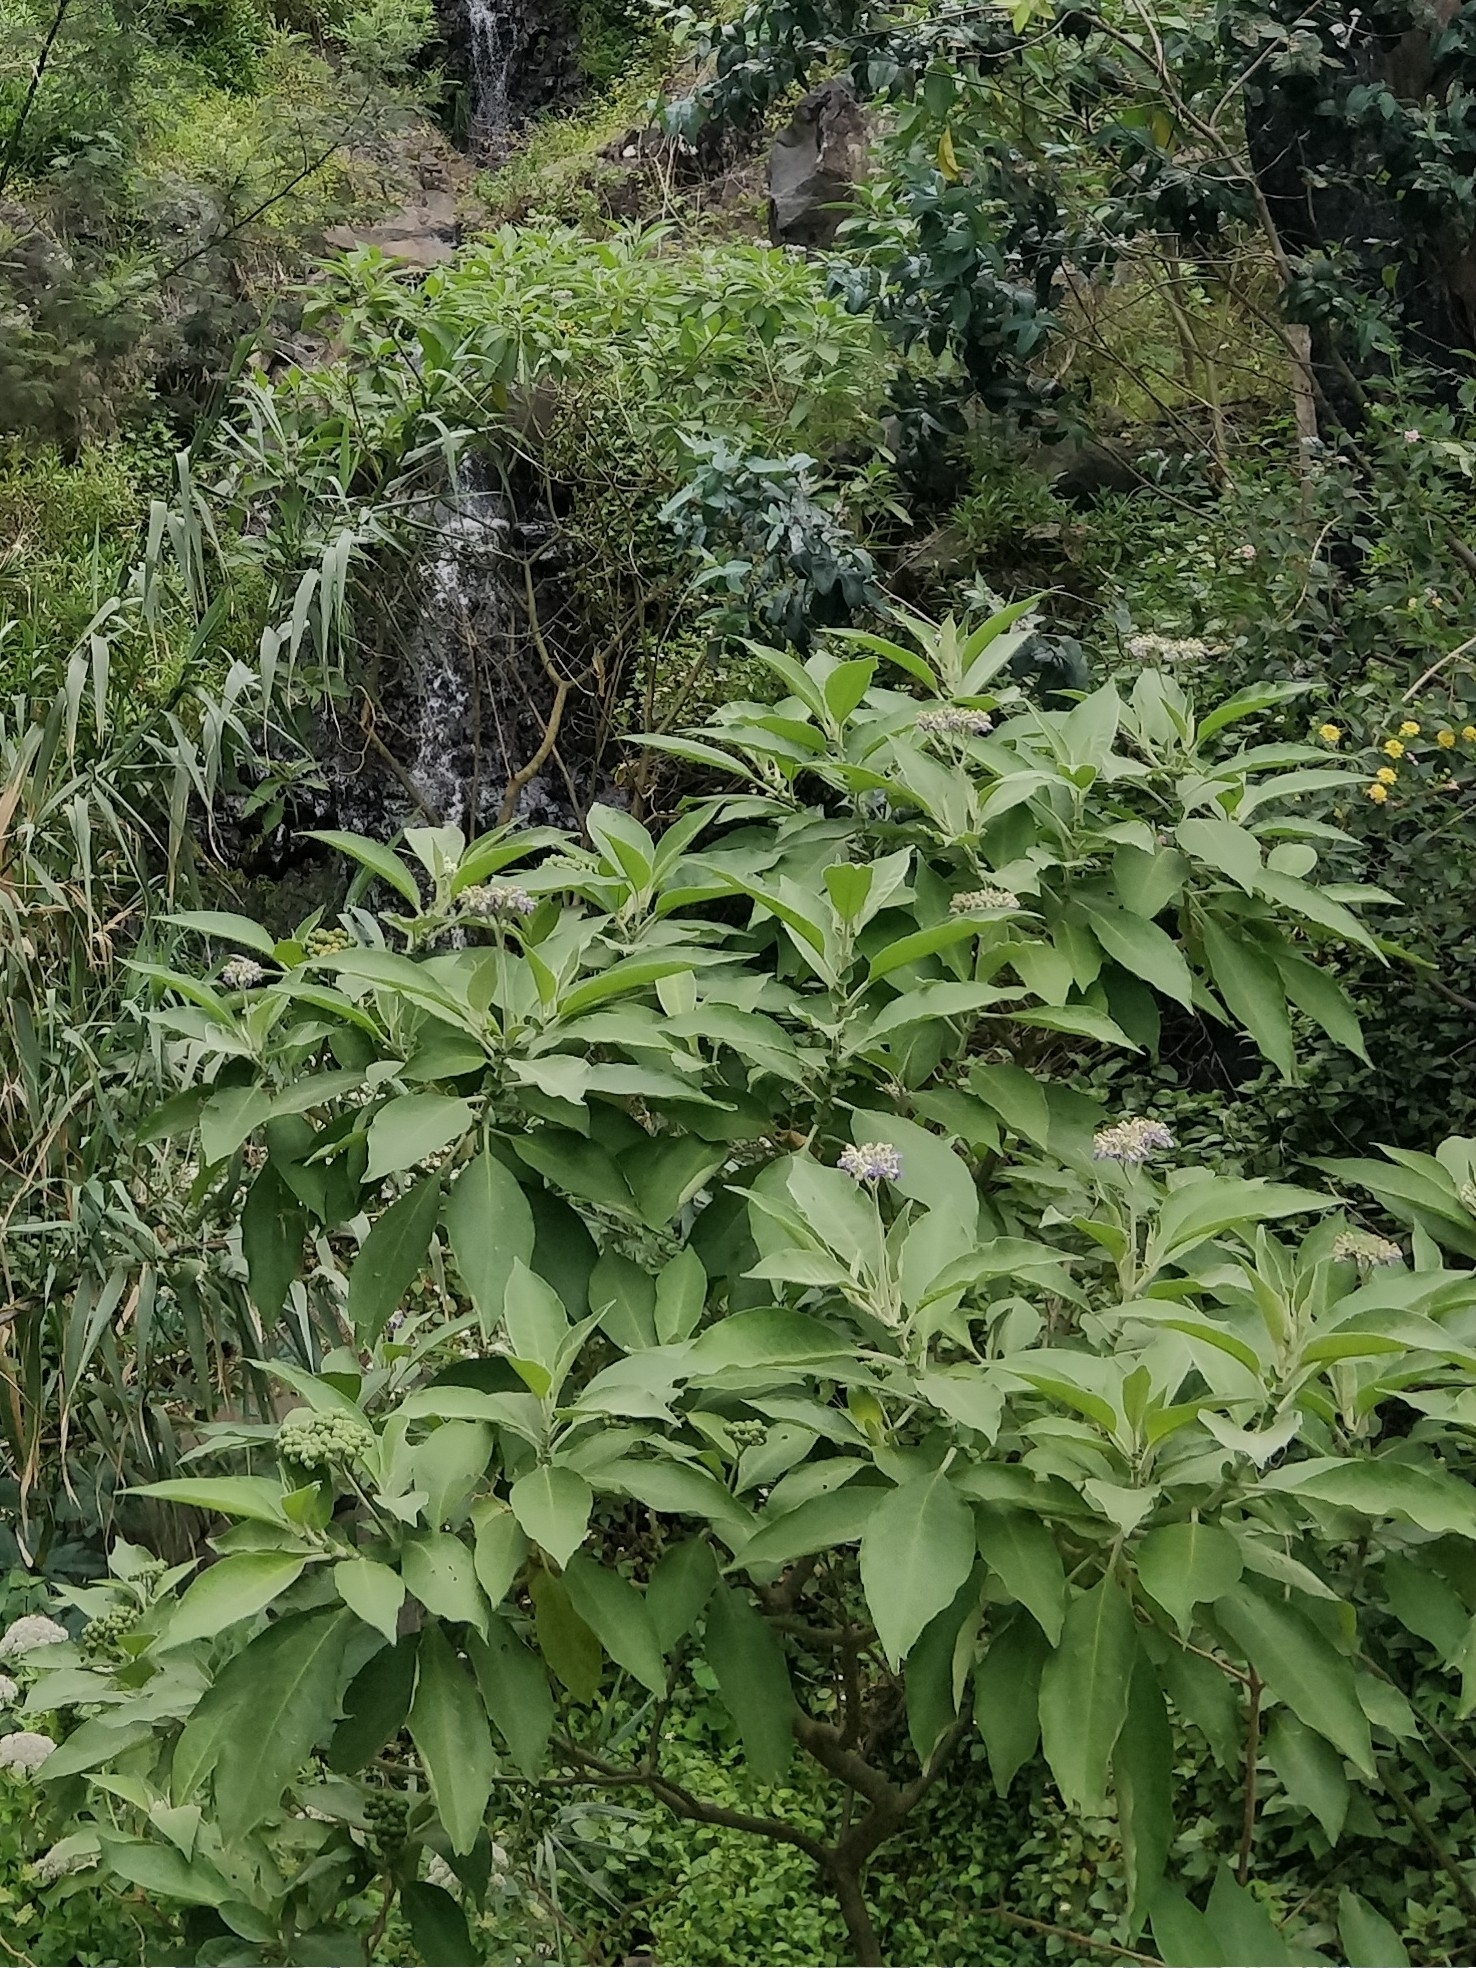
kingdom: Plantae
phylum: Tracheophyta
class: Magnoliopsida
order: Solanales
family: Solanaceae
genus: Solanum
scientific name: Solanum mauritianum
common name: Earleaf nightshade
